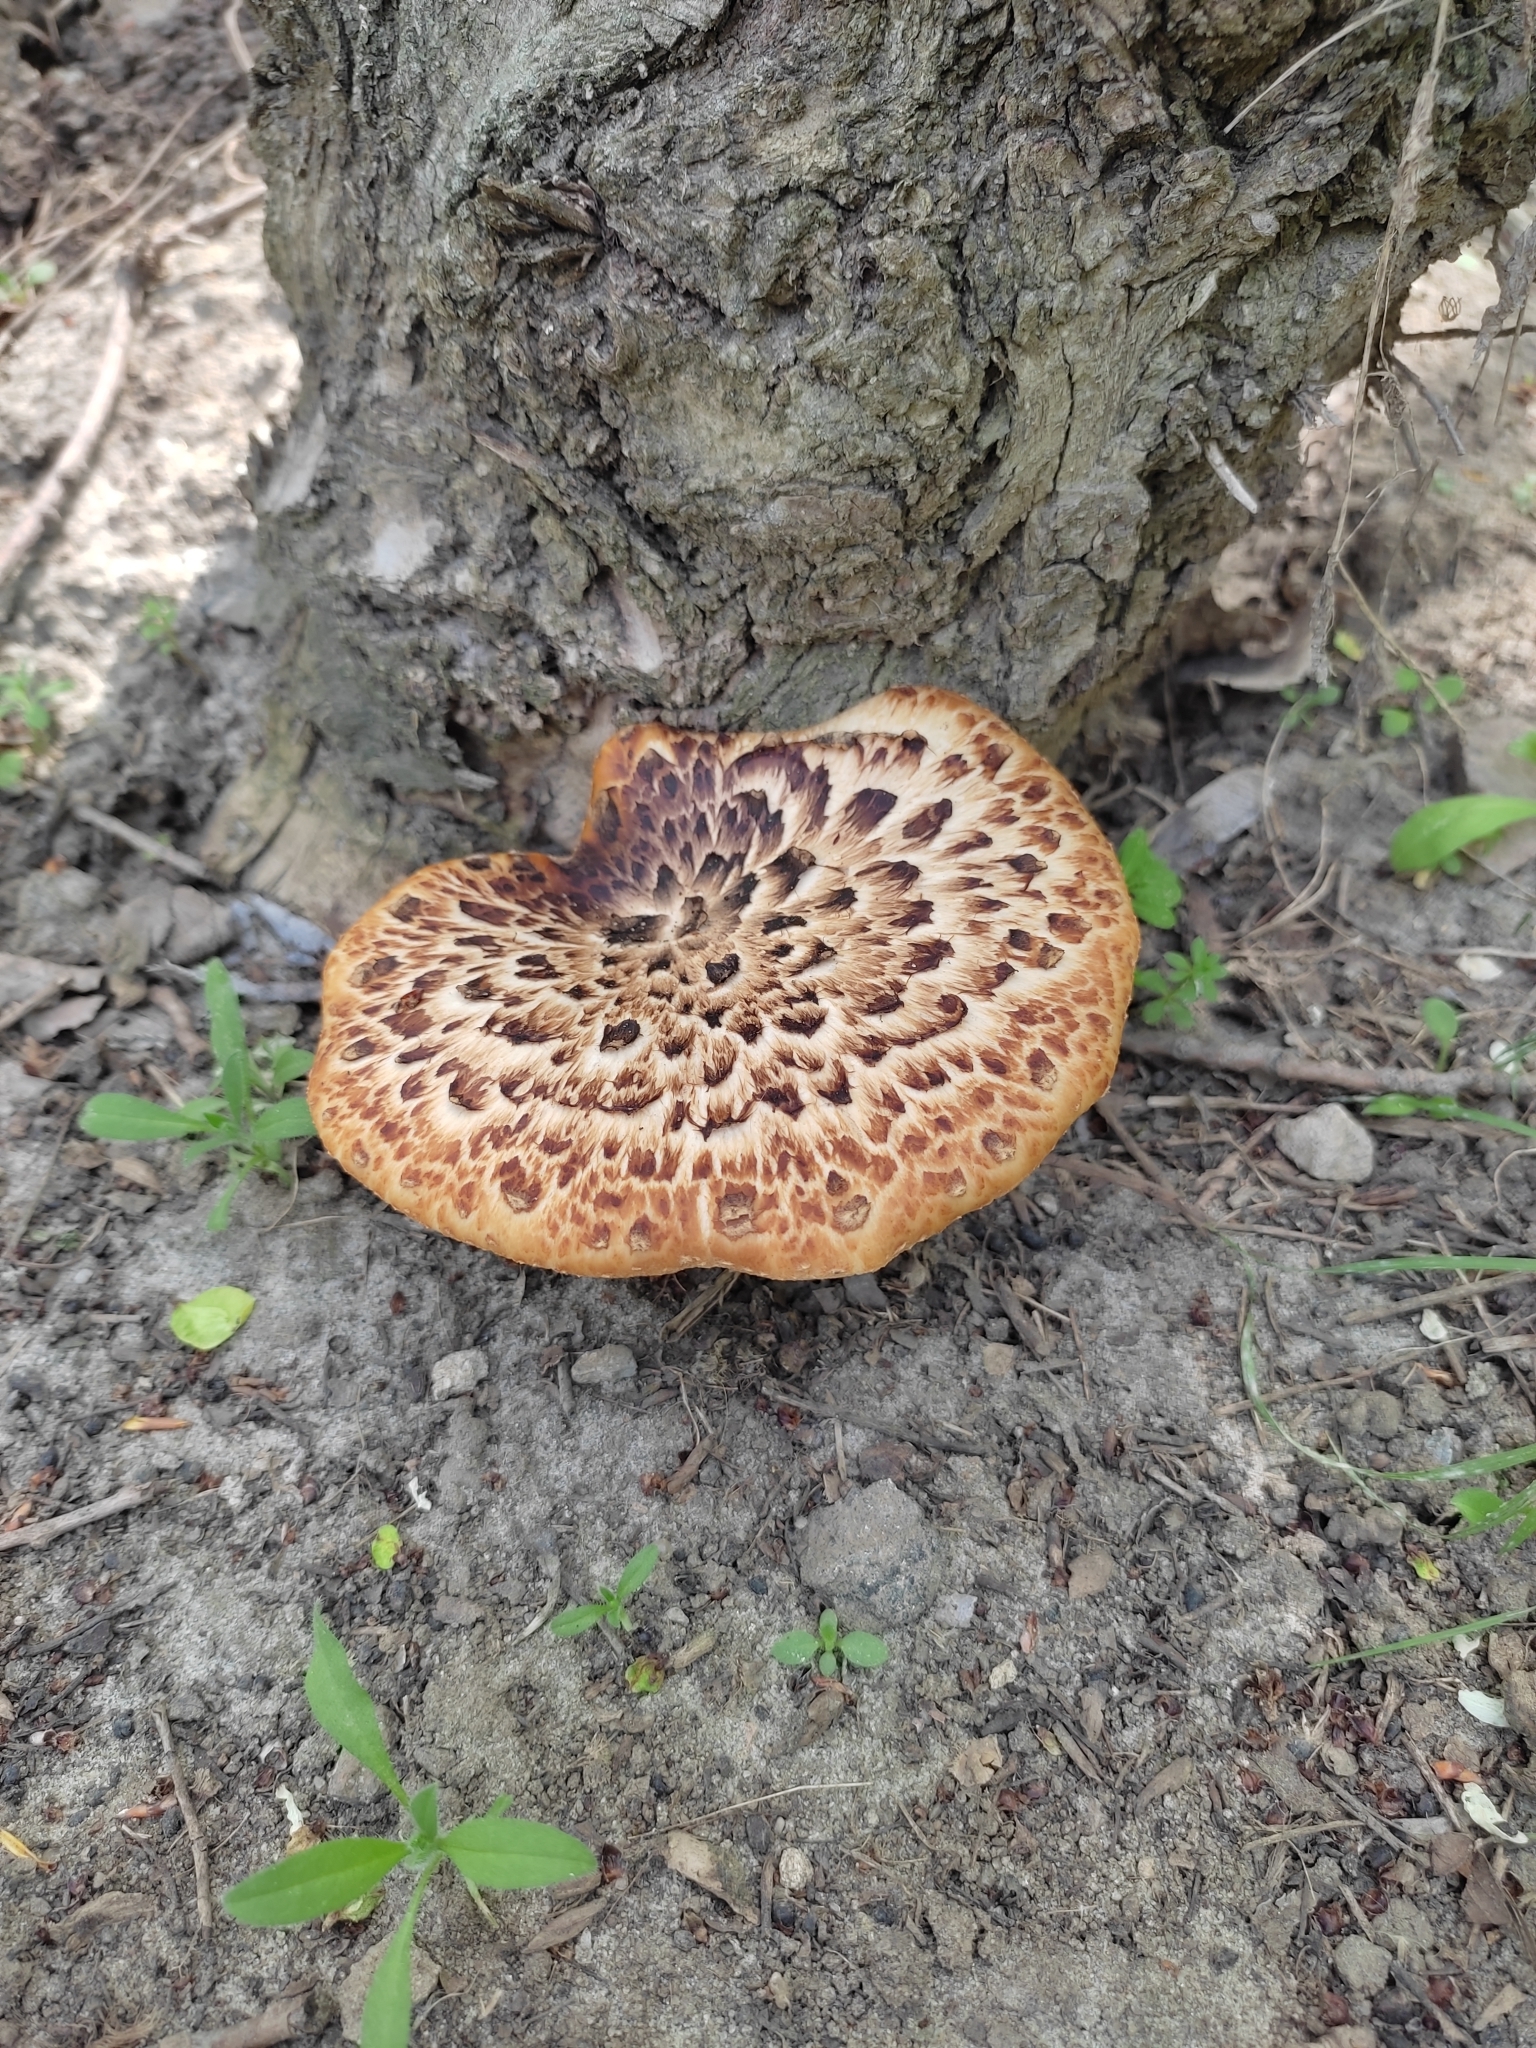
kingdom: Fungi
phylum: Basidiomycota
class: Agaricomycetes
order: Polyporales
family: Polyporaceae
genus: Cerioporus
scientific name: Cerioporus squamosus
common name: Dryad's saddle
